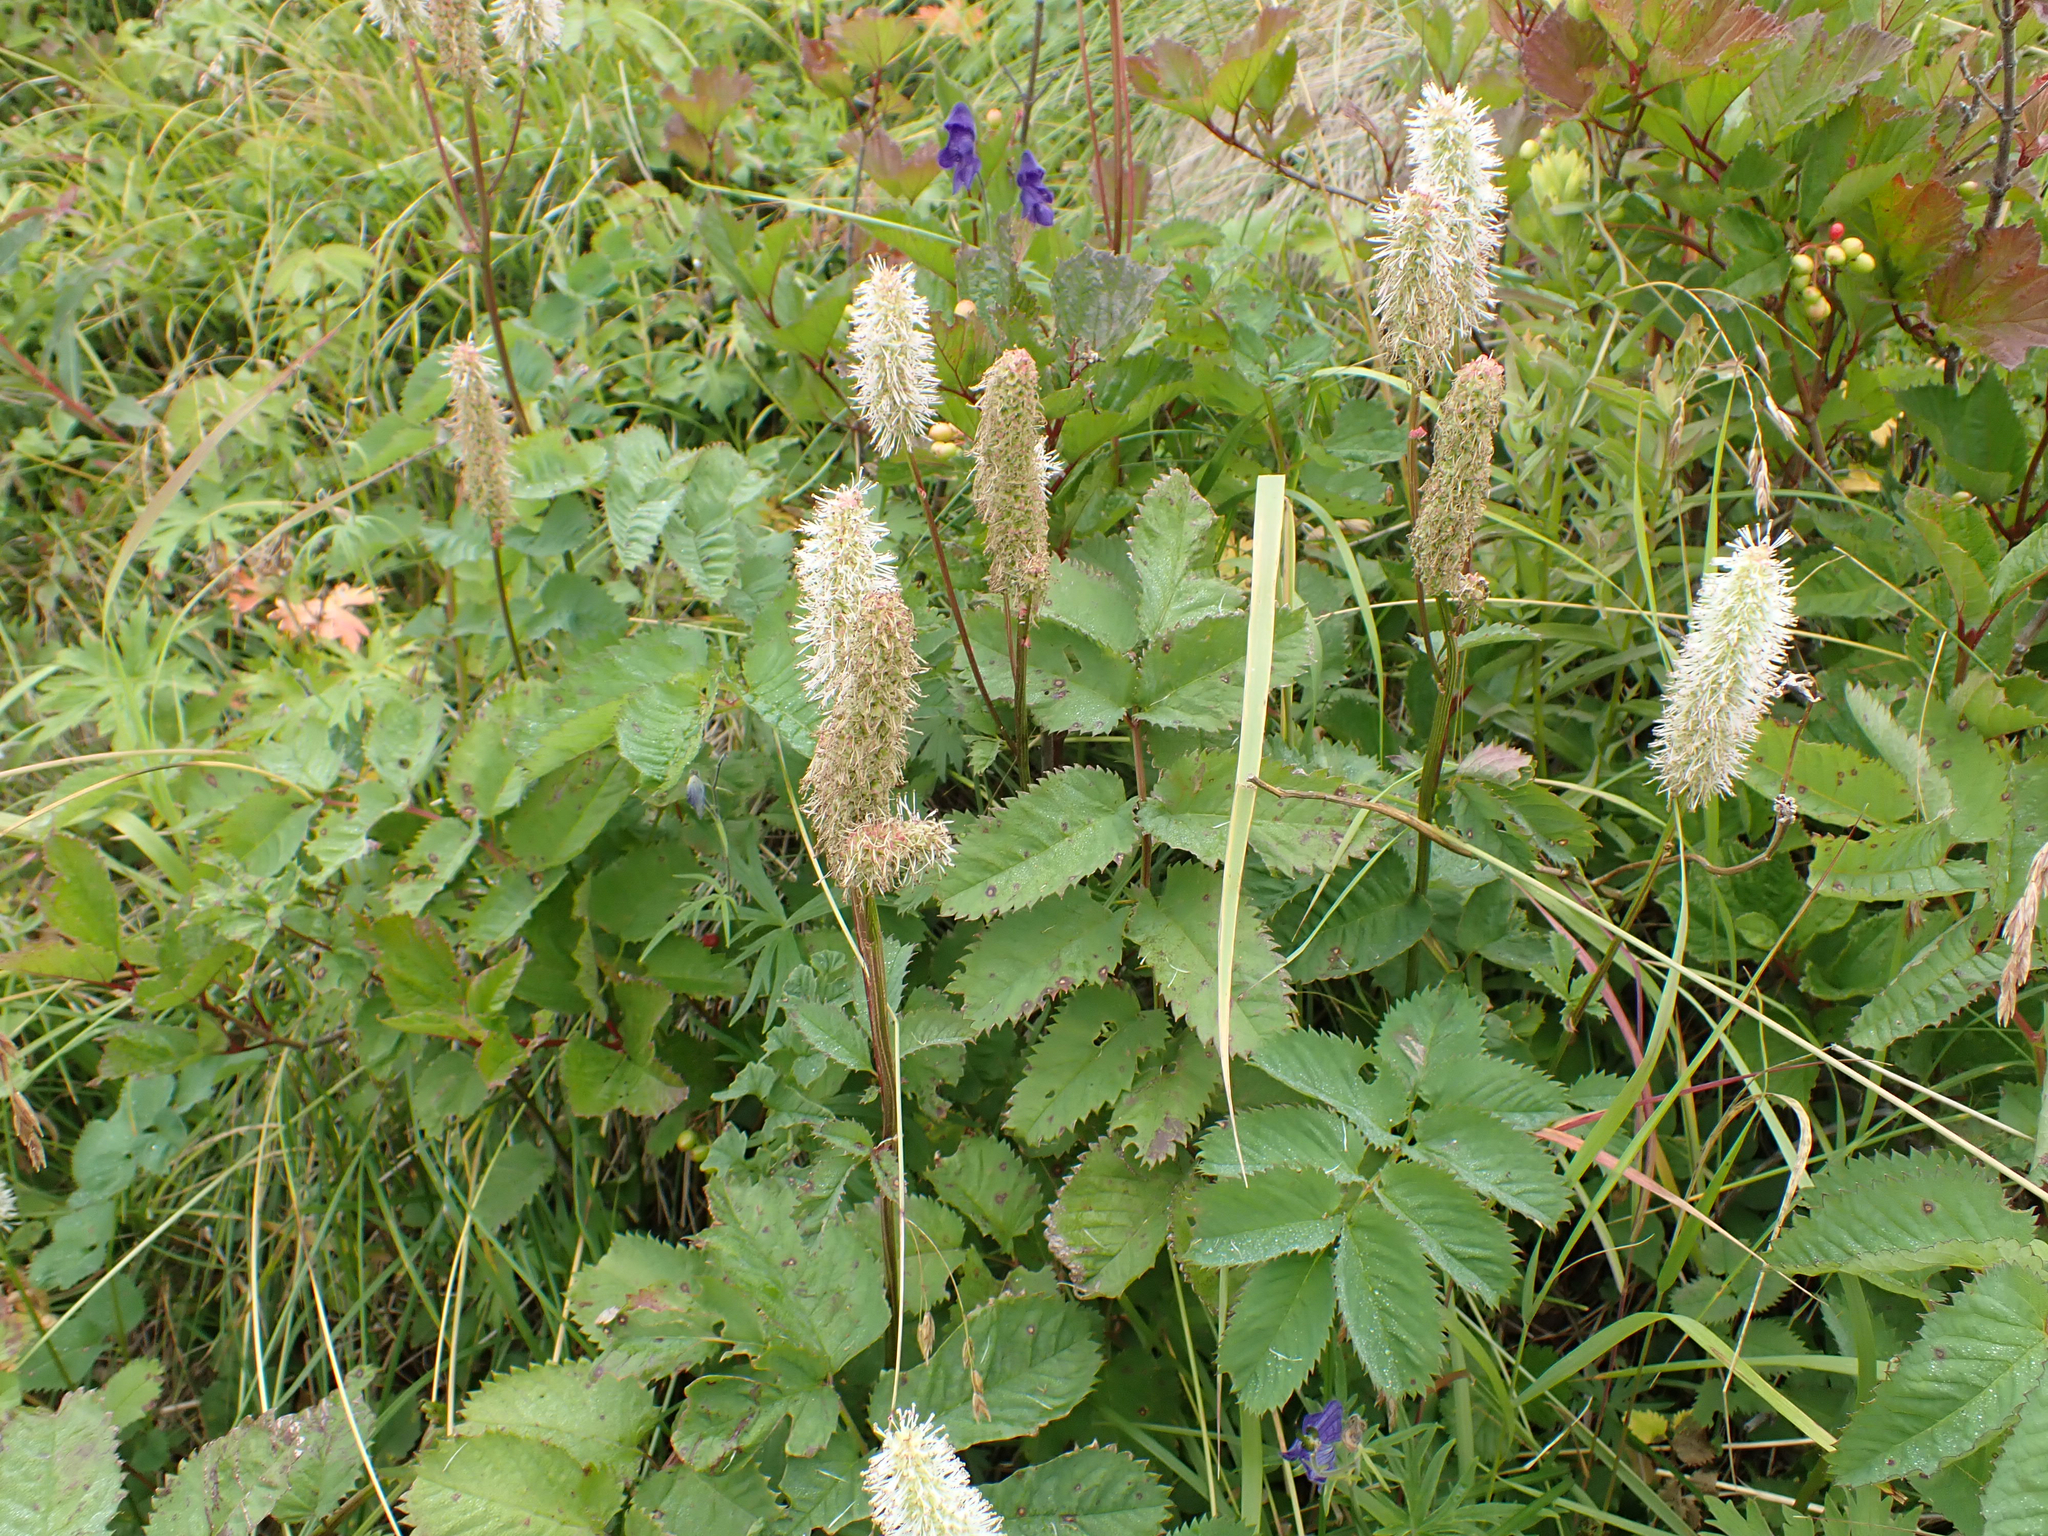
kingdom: Plantae
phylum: Tracheophyta
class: Magnoliopsida
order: Rosales
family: Rosaceae
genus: Sanguisorba
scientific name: Sanguisorba stipulata
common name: Sitka burnet
